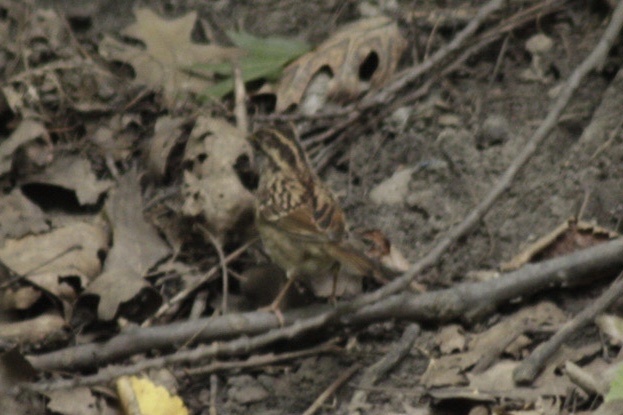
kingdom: Animalia
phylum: Chordata
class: Aves
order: Passeriformes
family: Passerellidae
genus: Zonotrichia
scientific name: Zonotrichia albicollis
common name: White-throated sparrow
